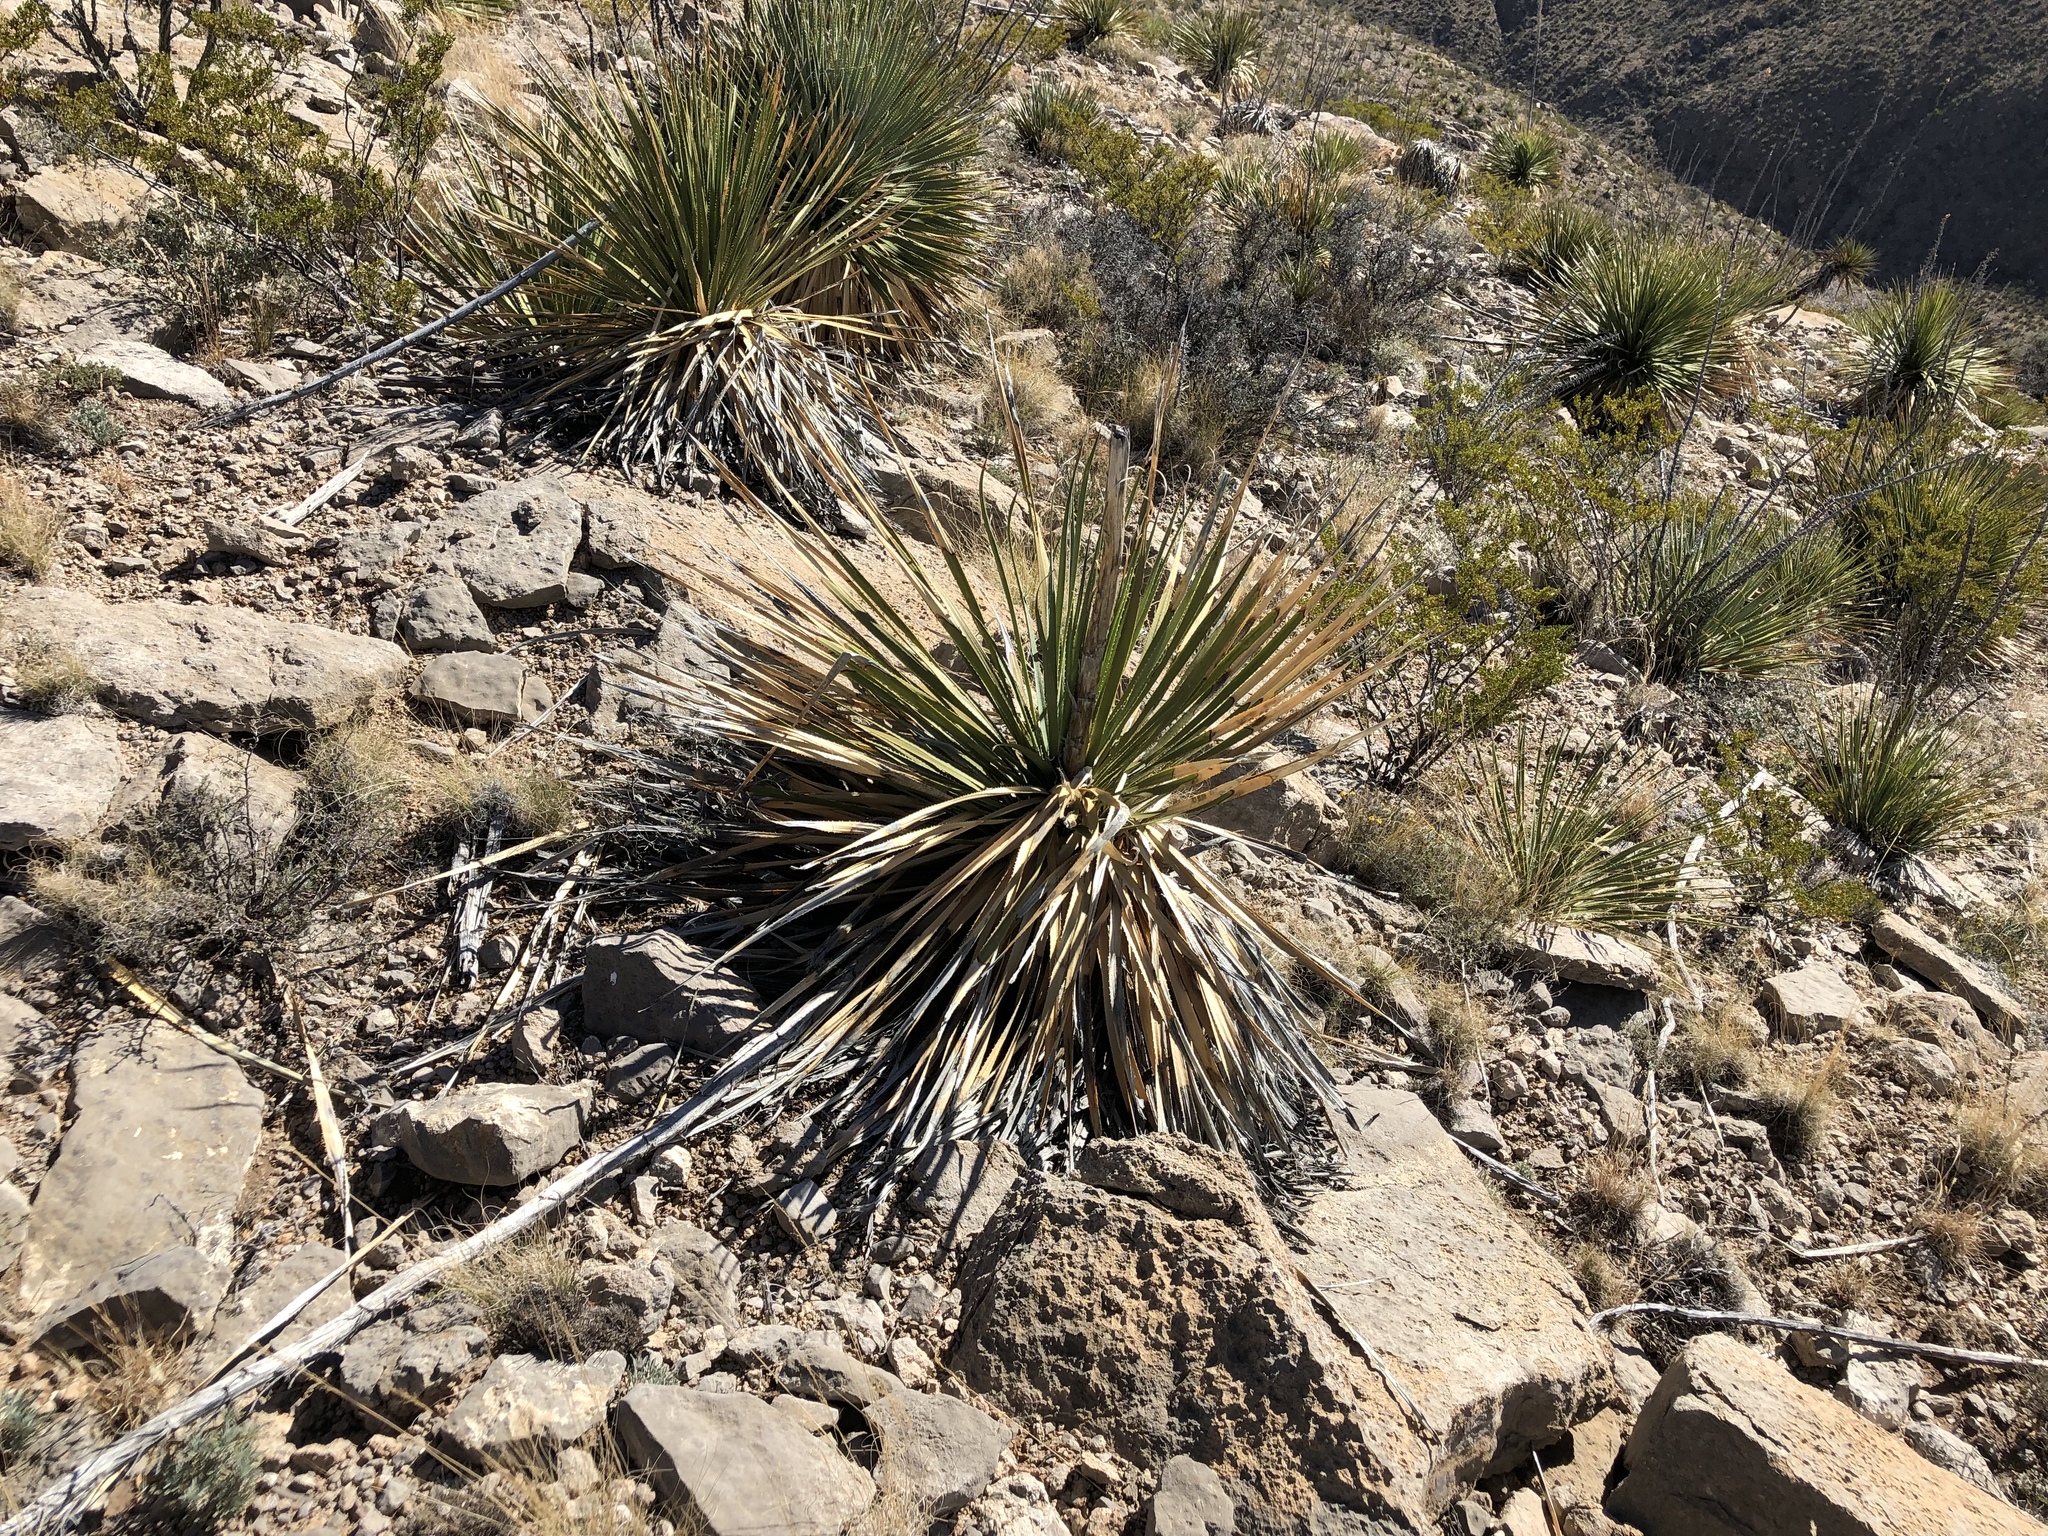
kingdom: Plantae
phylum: Tracheophyta
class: Liliopsida
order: Asparagales
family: Asparagaceae
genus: Dasylirion
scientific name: Dasylirion wheeleri
